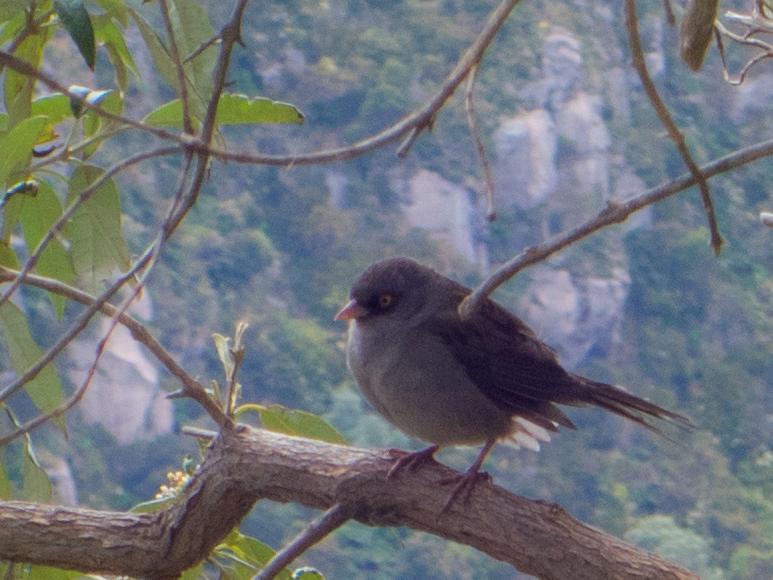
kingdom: Animalia
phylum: Chordata
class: Aves
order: Passeriformes
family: Passerellidae
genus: Junco
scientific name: Junco vulcani
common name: Volcano junco
